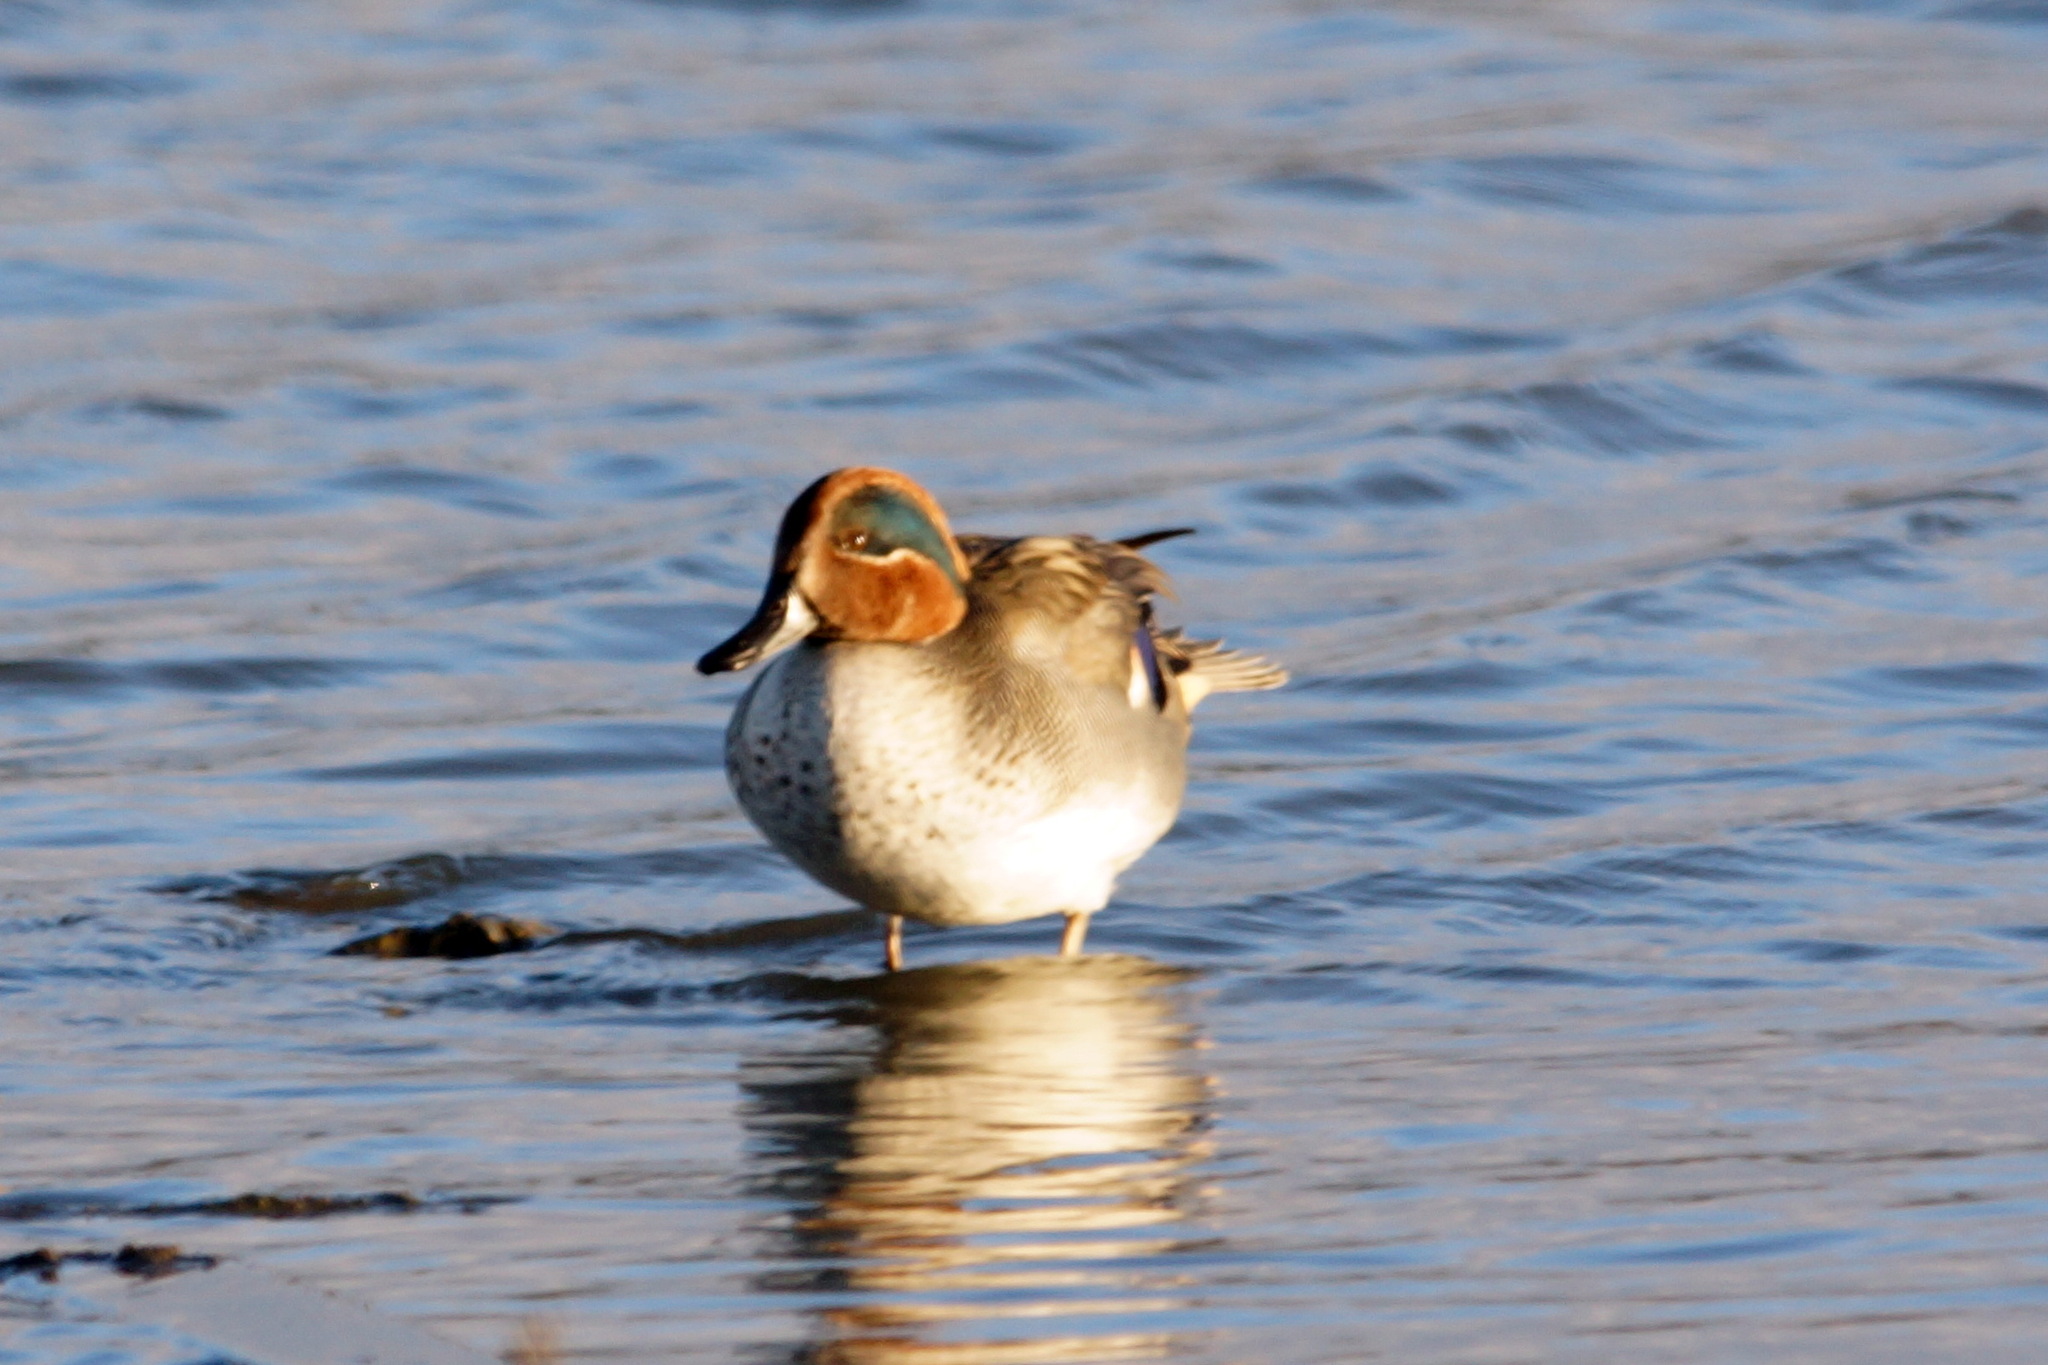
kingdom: Animalia
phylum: Chordata
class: Aves
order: Anseriformes
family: Anatidae
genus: Anas
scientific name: Anas crecca
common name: Eurasian teal
